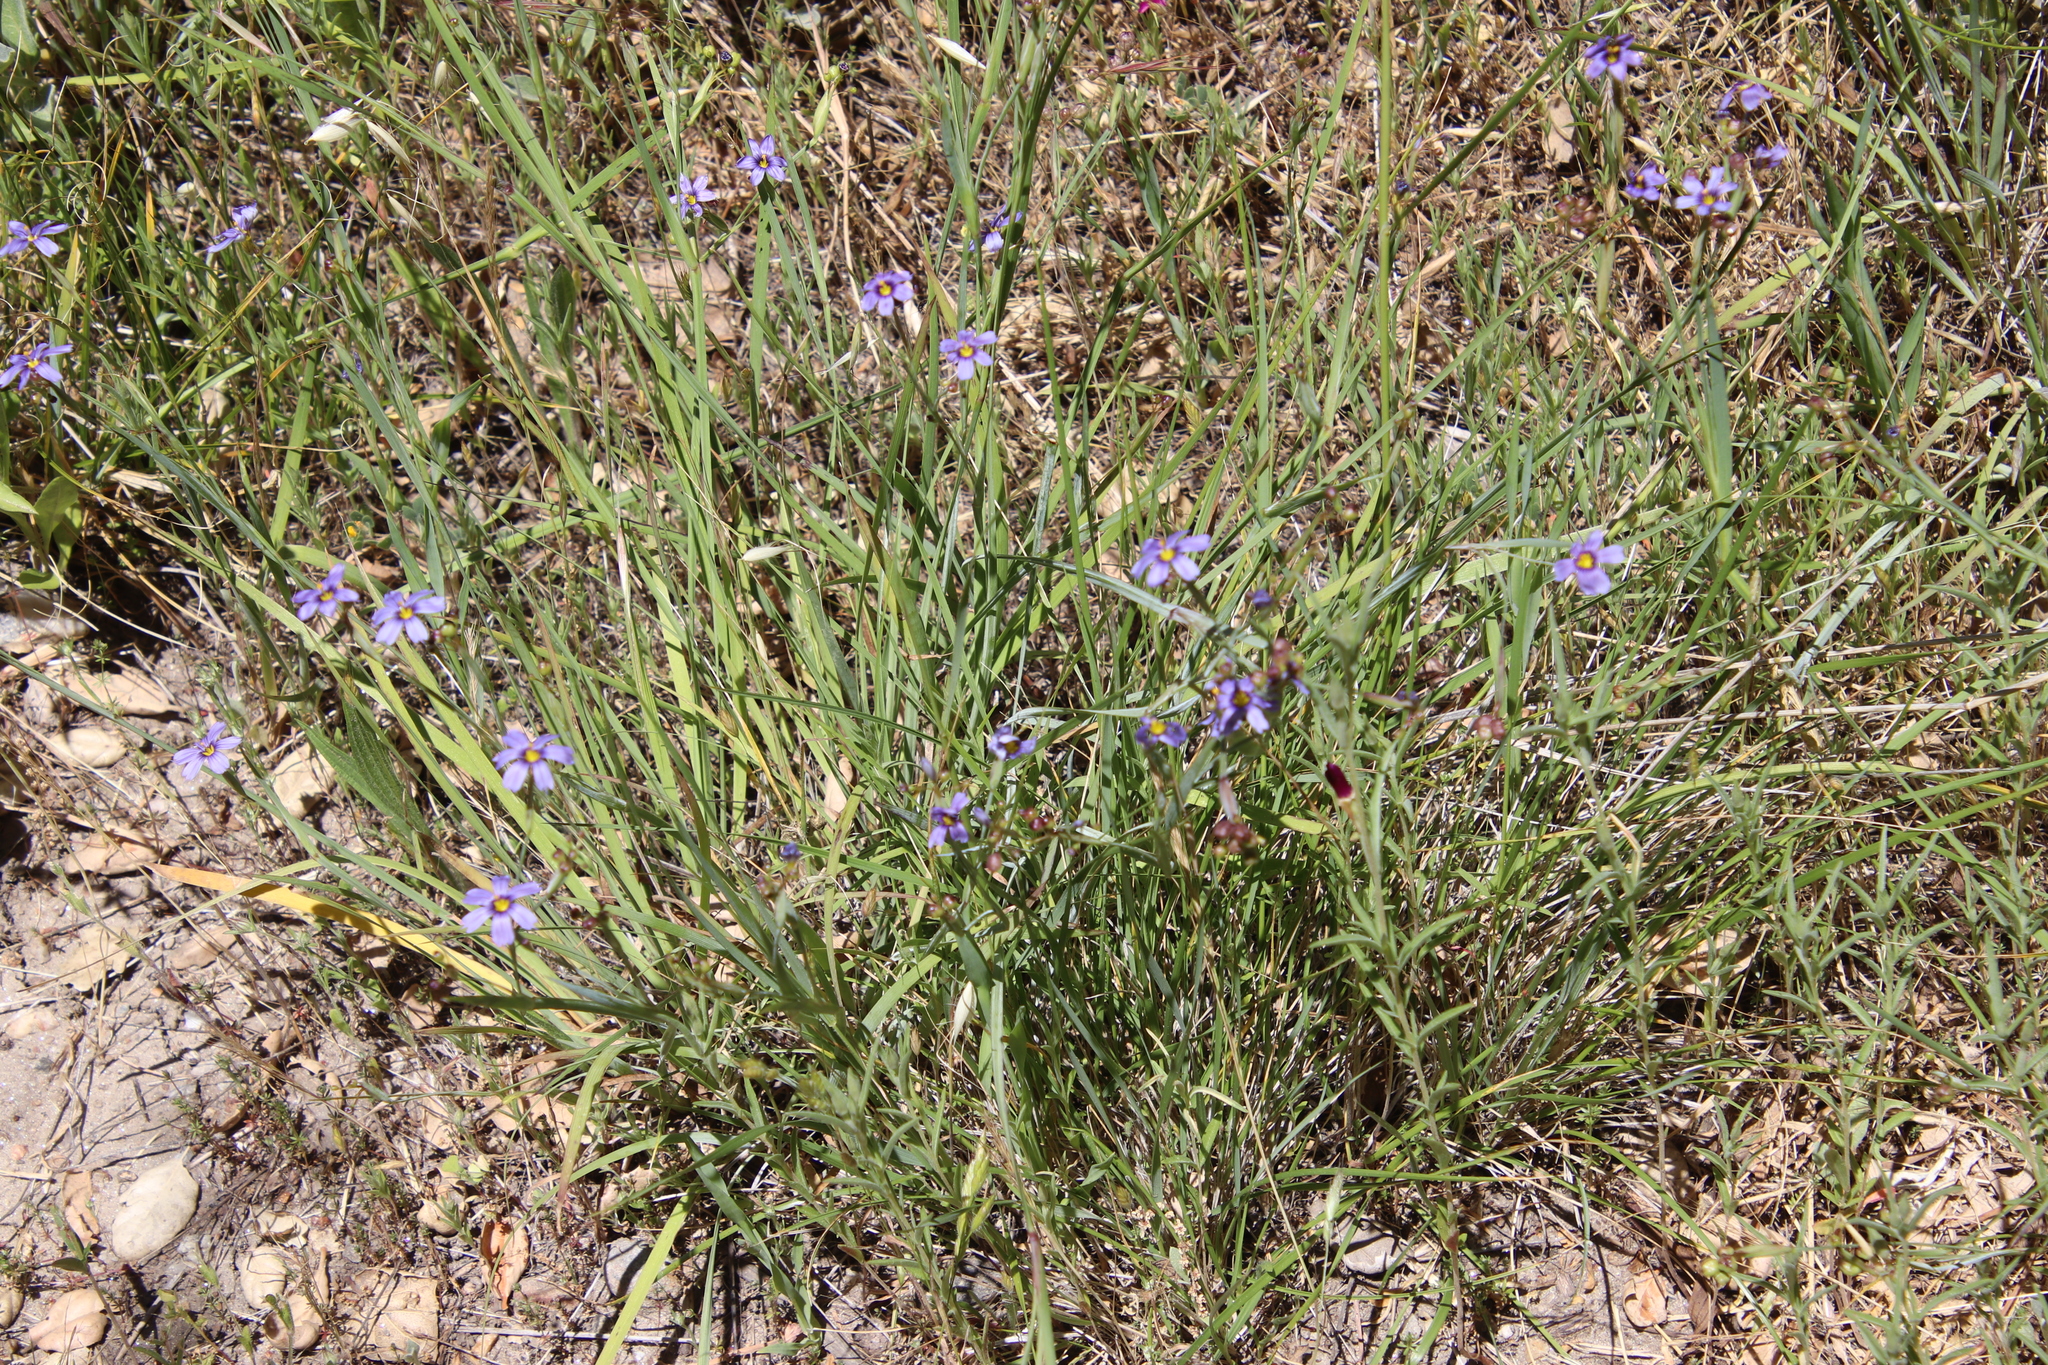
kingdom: Plantae
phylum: Tracheophyta
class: Liliopsida
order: Asparagales
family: Iridaceae
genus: Sisyrinchium
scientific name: Sisyrinchium bellum
